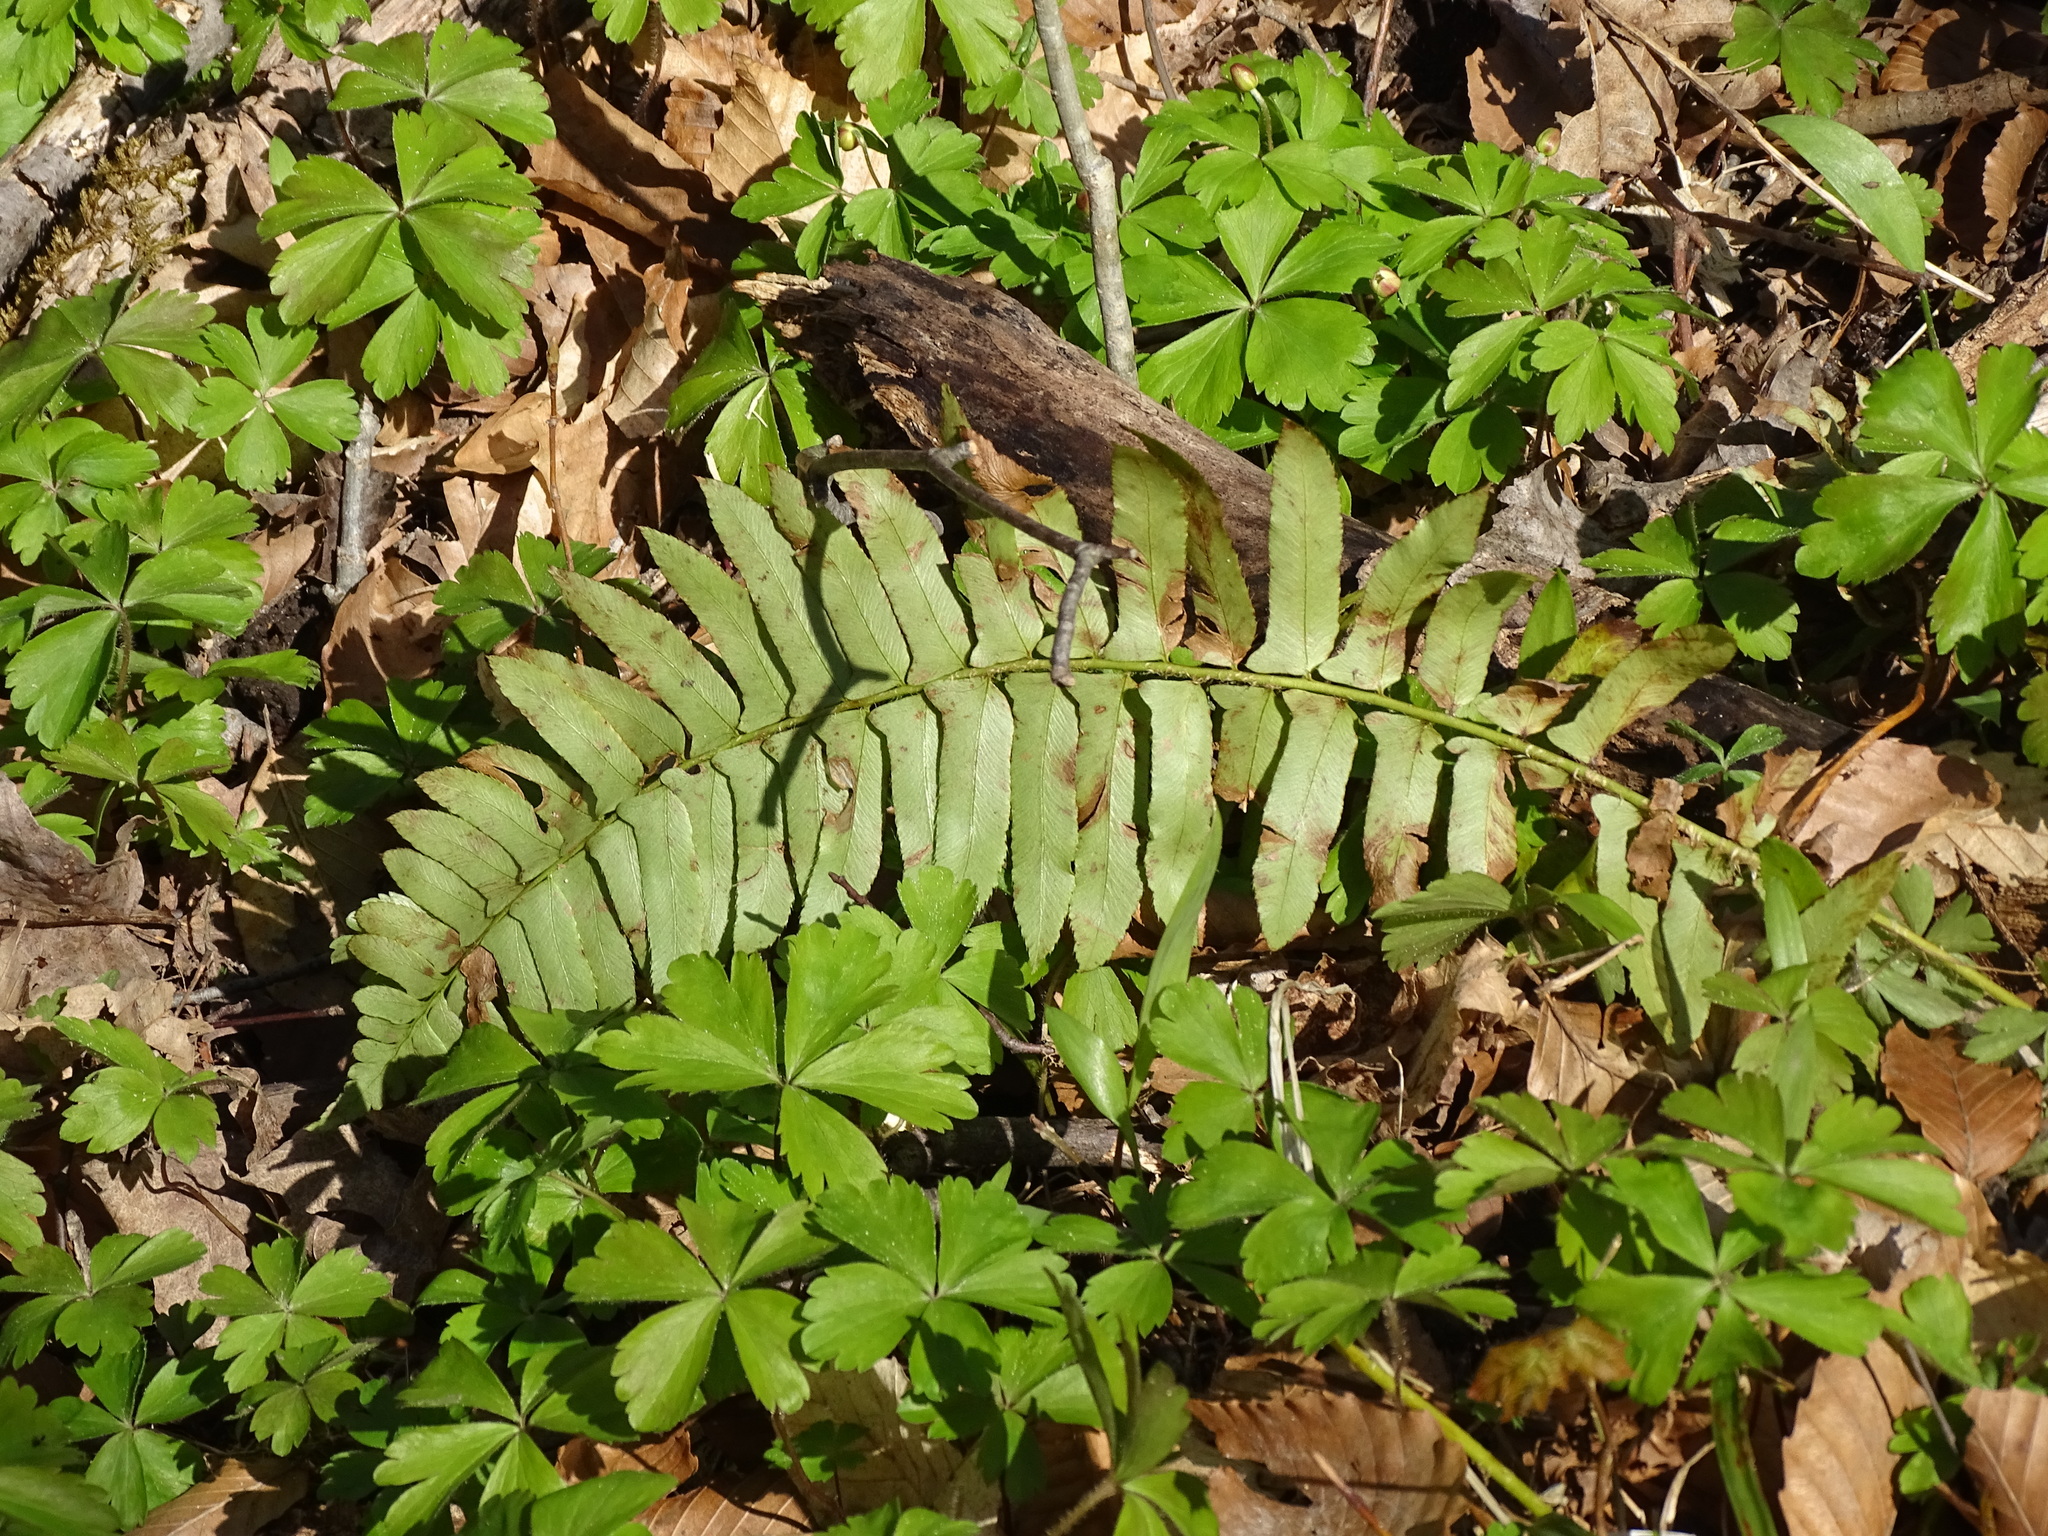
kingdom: Plantae
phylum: Tracheophyta
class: Polypodiopsida
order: Polypodiales
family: Dryopteridaceae
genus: Polystichum
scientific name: Polystichum acrostichoides
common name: Christmas fern
